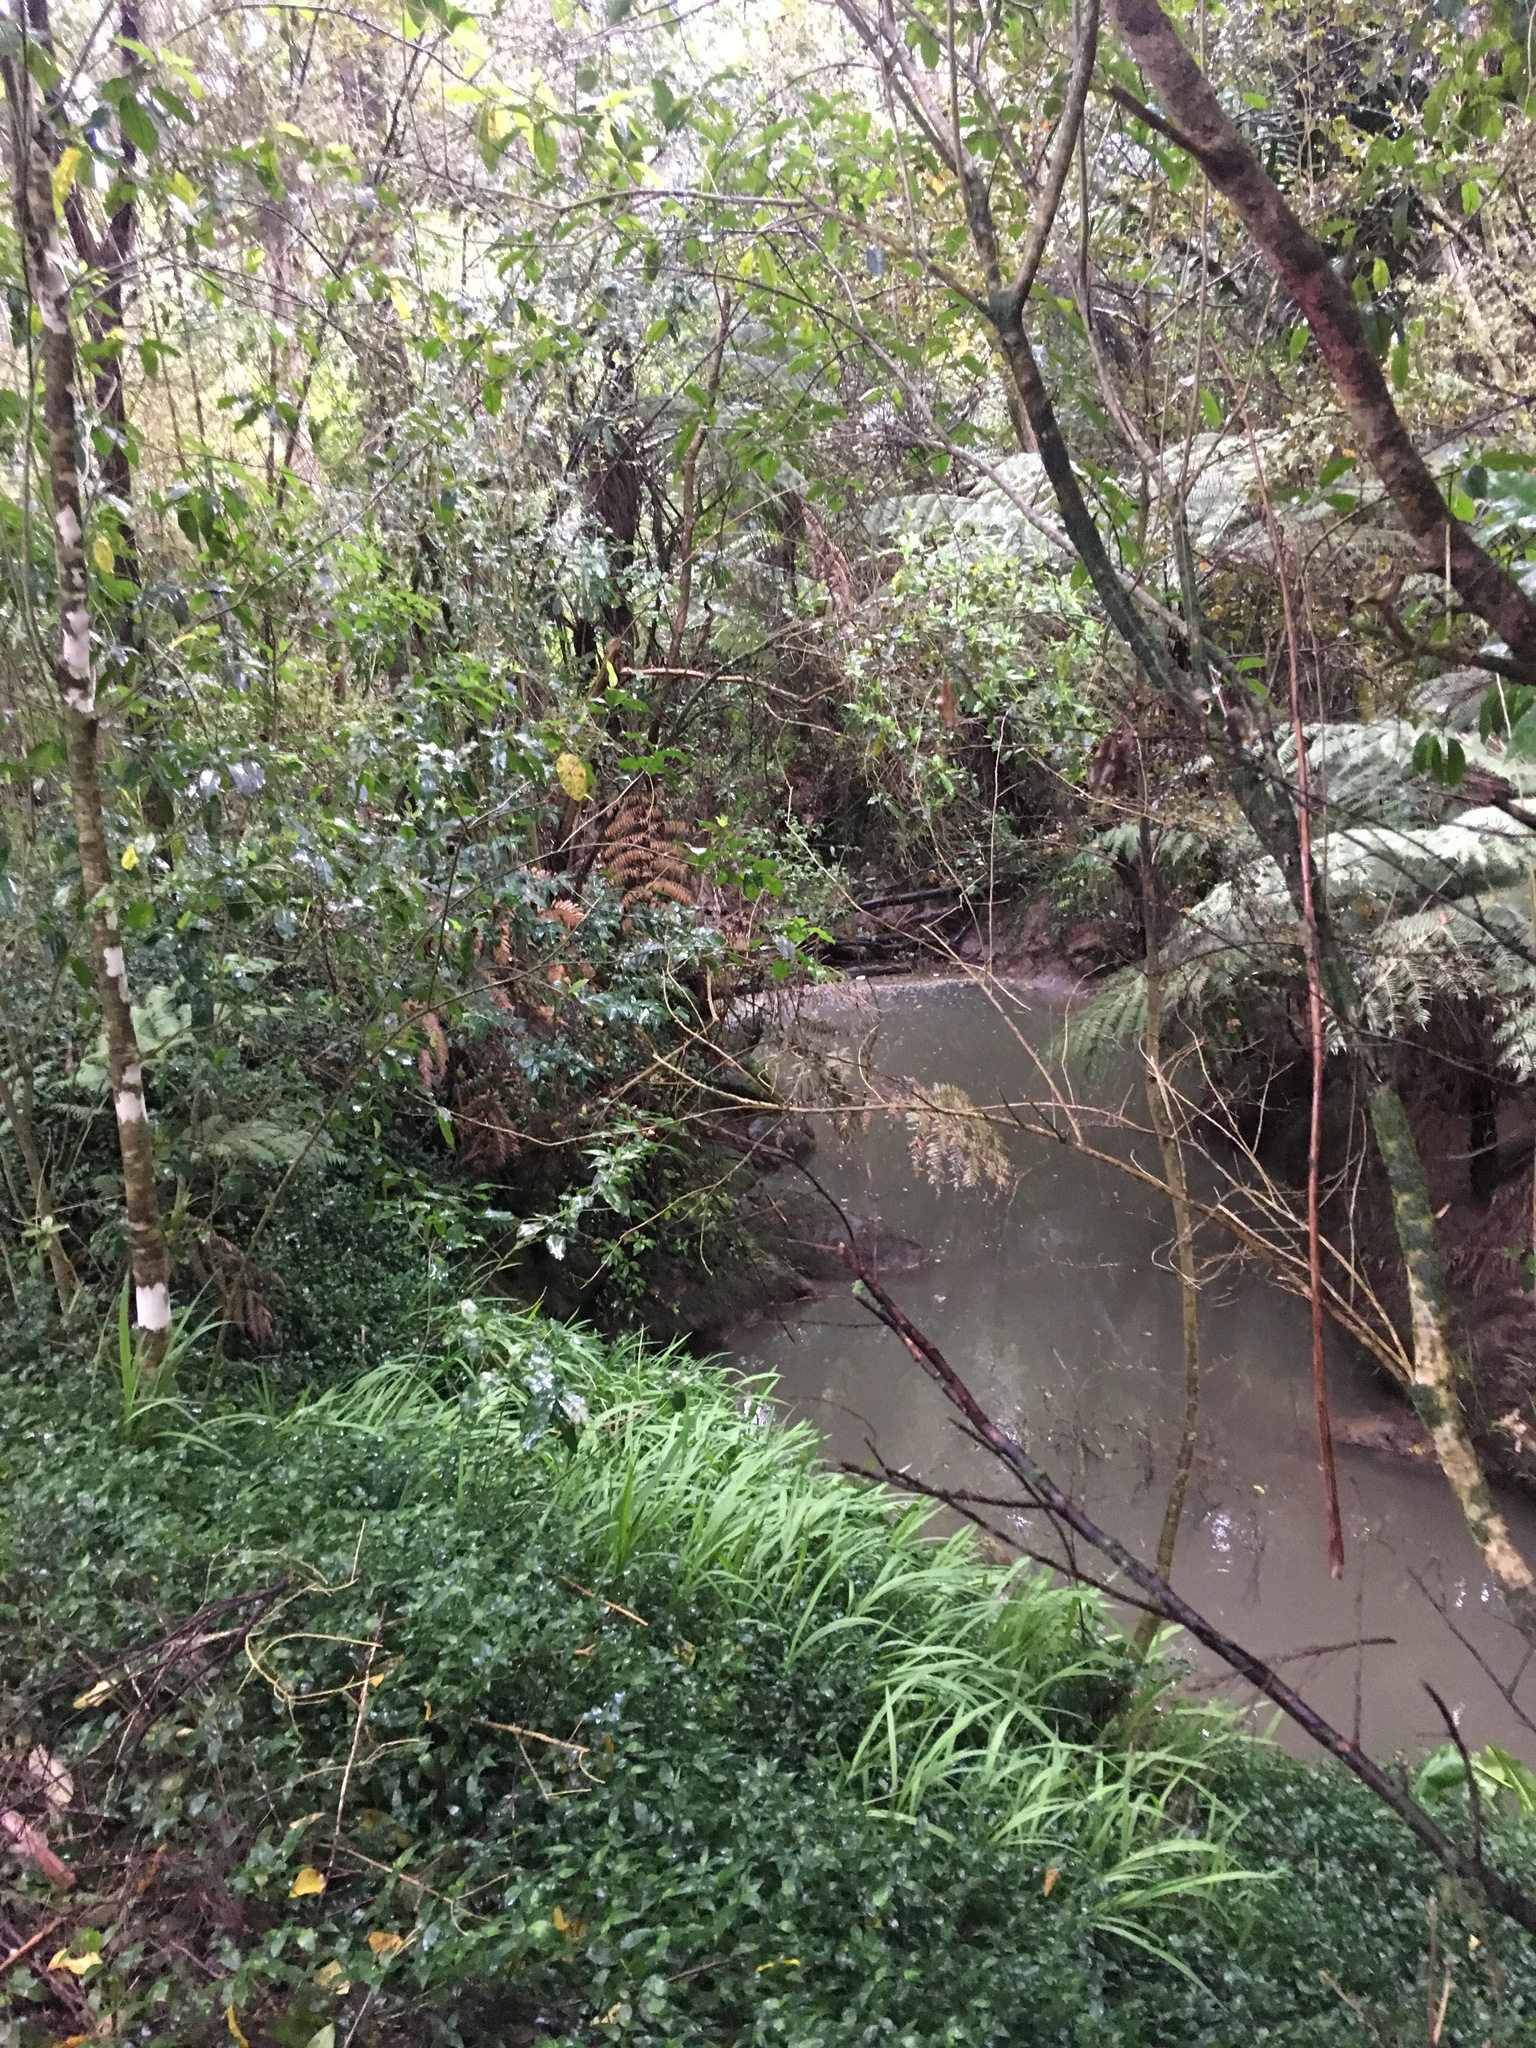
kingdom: Plantae
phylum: Tracheophyta
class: Liliopsida
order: Asparagales
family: Iridaceae
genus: Crocosmia
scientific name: Crocosmia crocosmiiflora
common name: Montbretia
